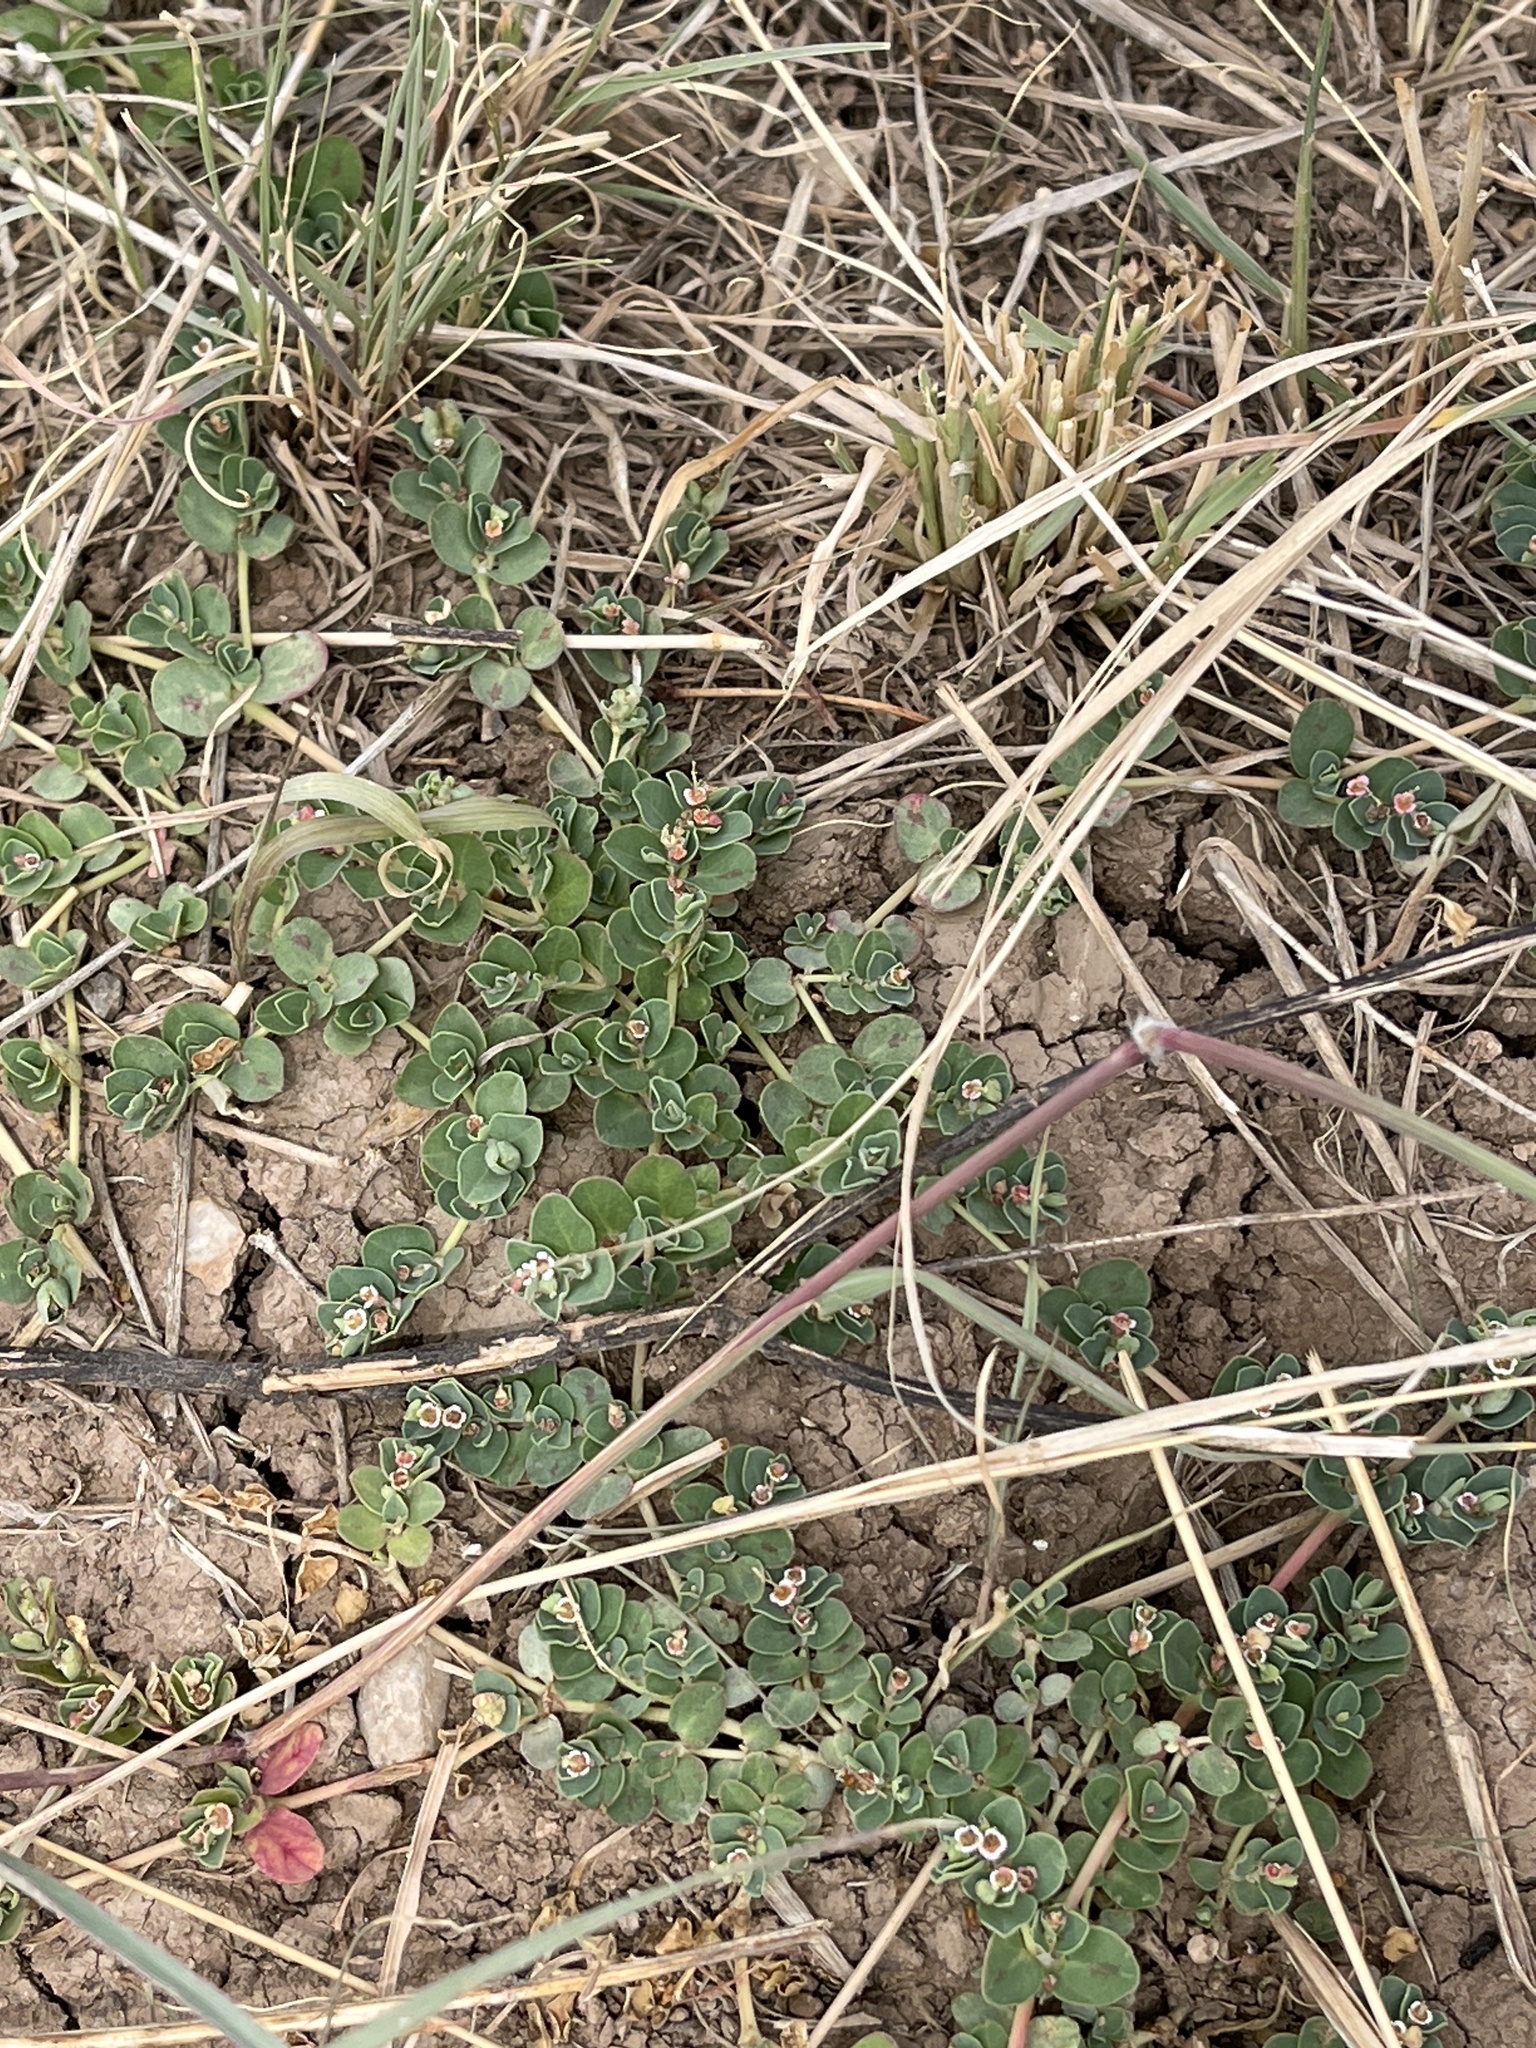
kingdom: Plantae
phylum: Tracheophyta
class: Magnoliopsida
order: Malpighiales
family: Euphorbiaceae
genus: Euphorbia
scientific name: Euphorbia albomarginata
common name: Whitemargin sandmat
